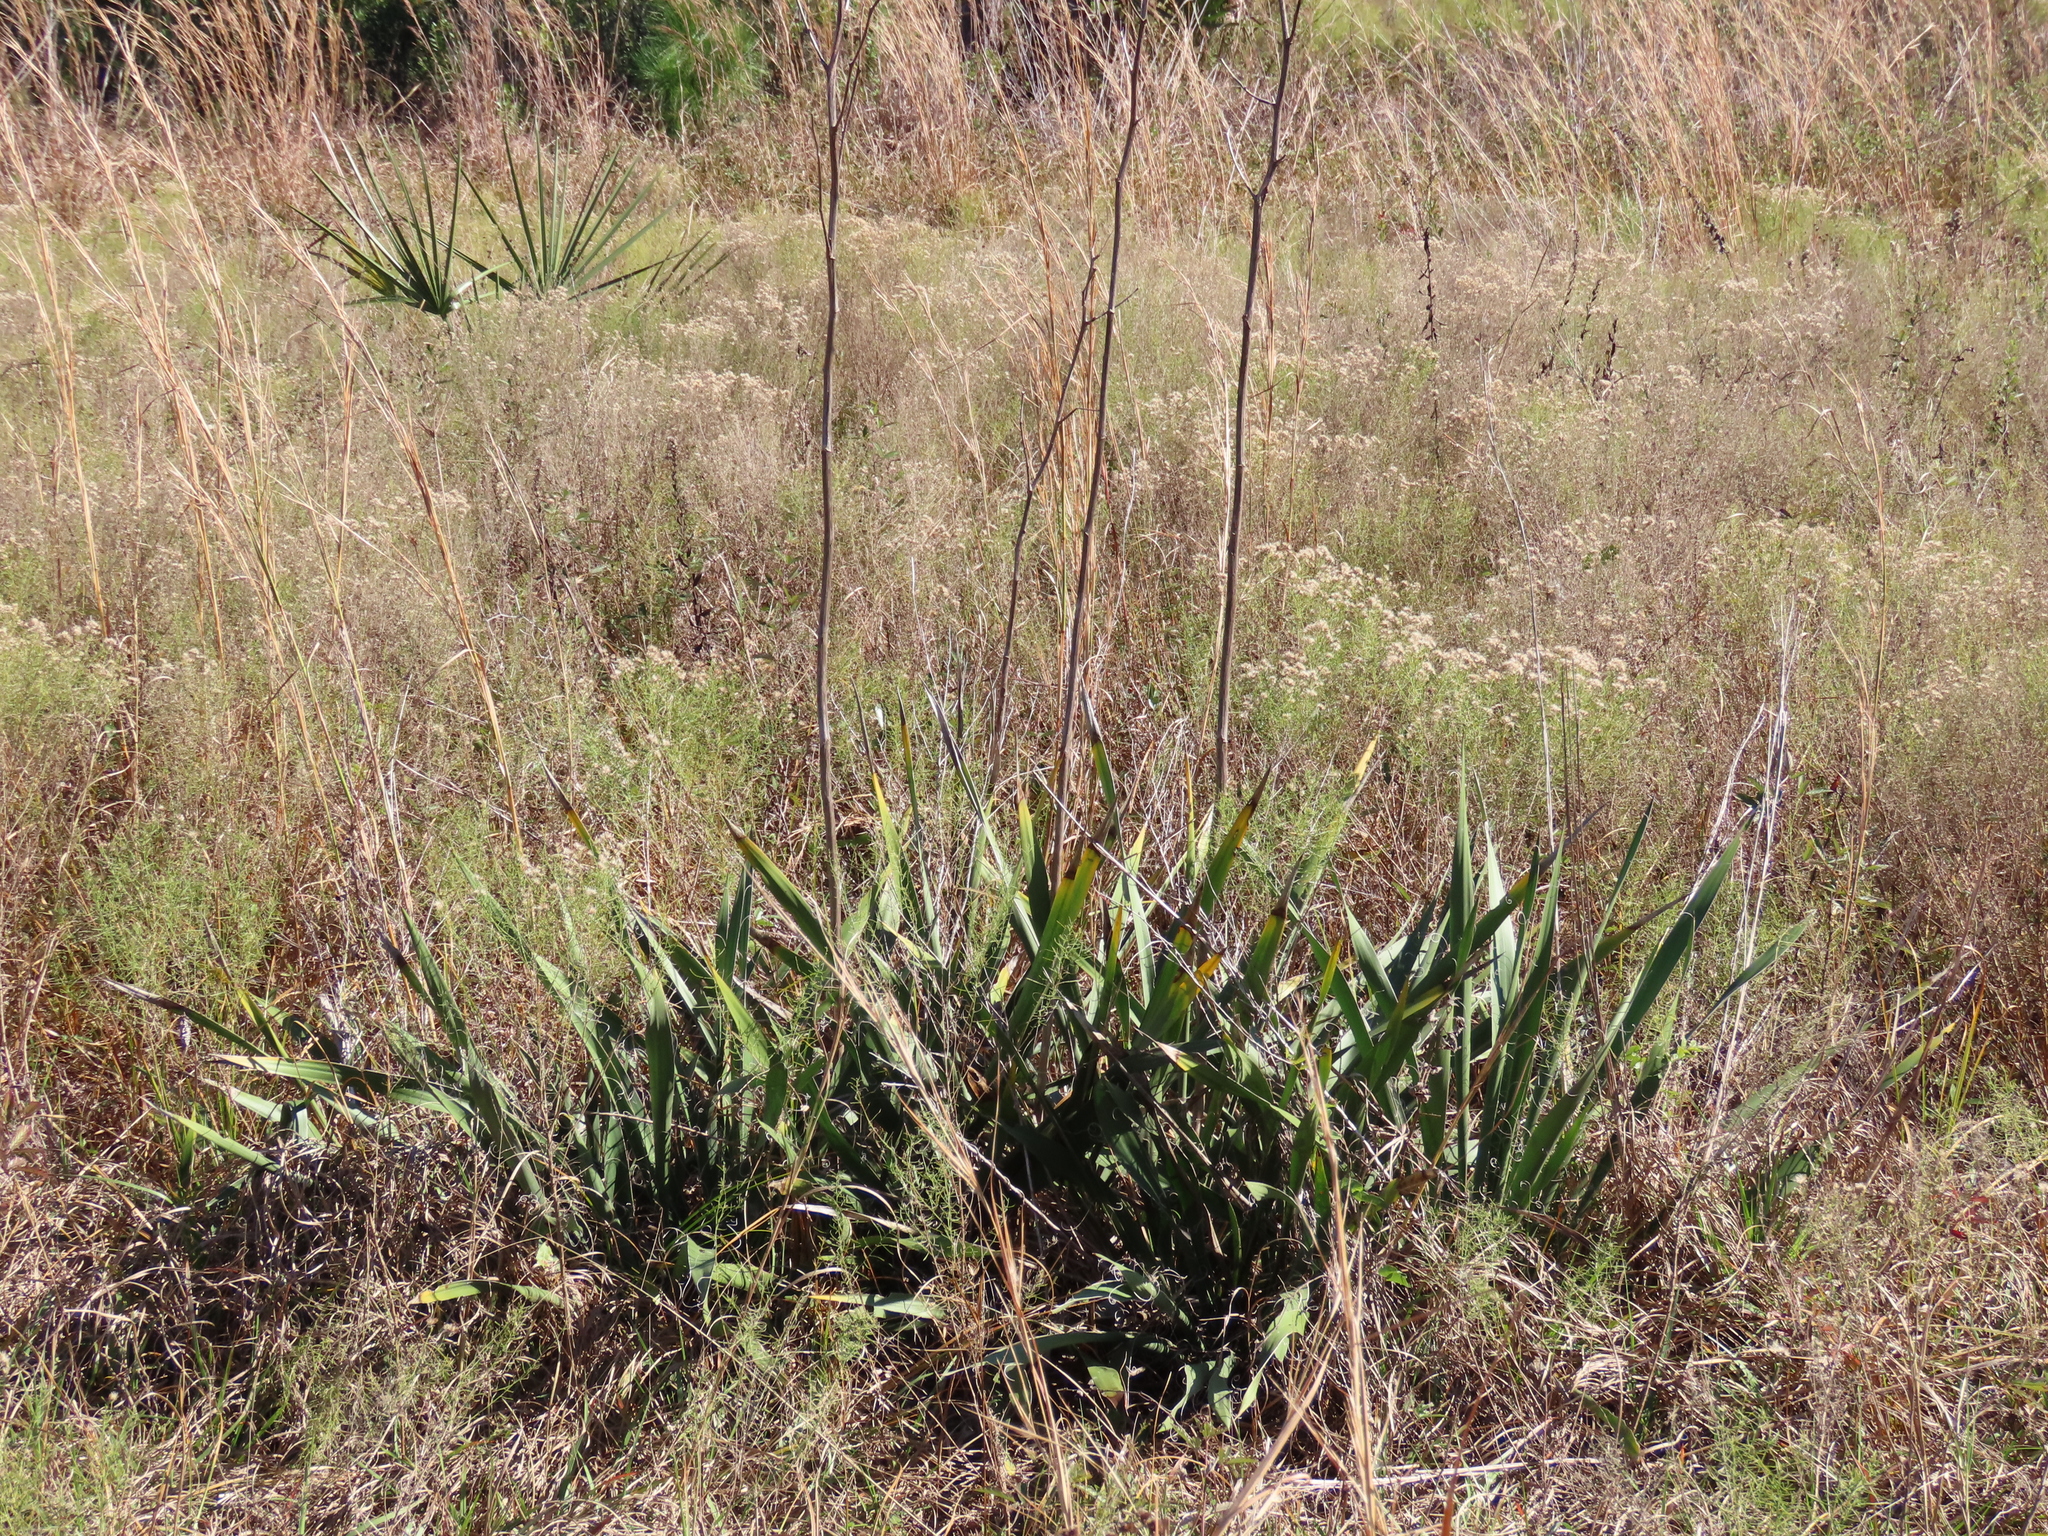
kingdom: Plantae
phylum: Tracheophyta
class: Liliopsida
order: Asparagales
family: Asparagaceae
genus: Yucca
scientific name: Yucca filamentosa
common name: Adam's-needle
